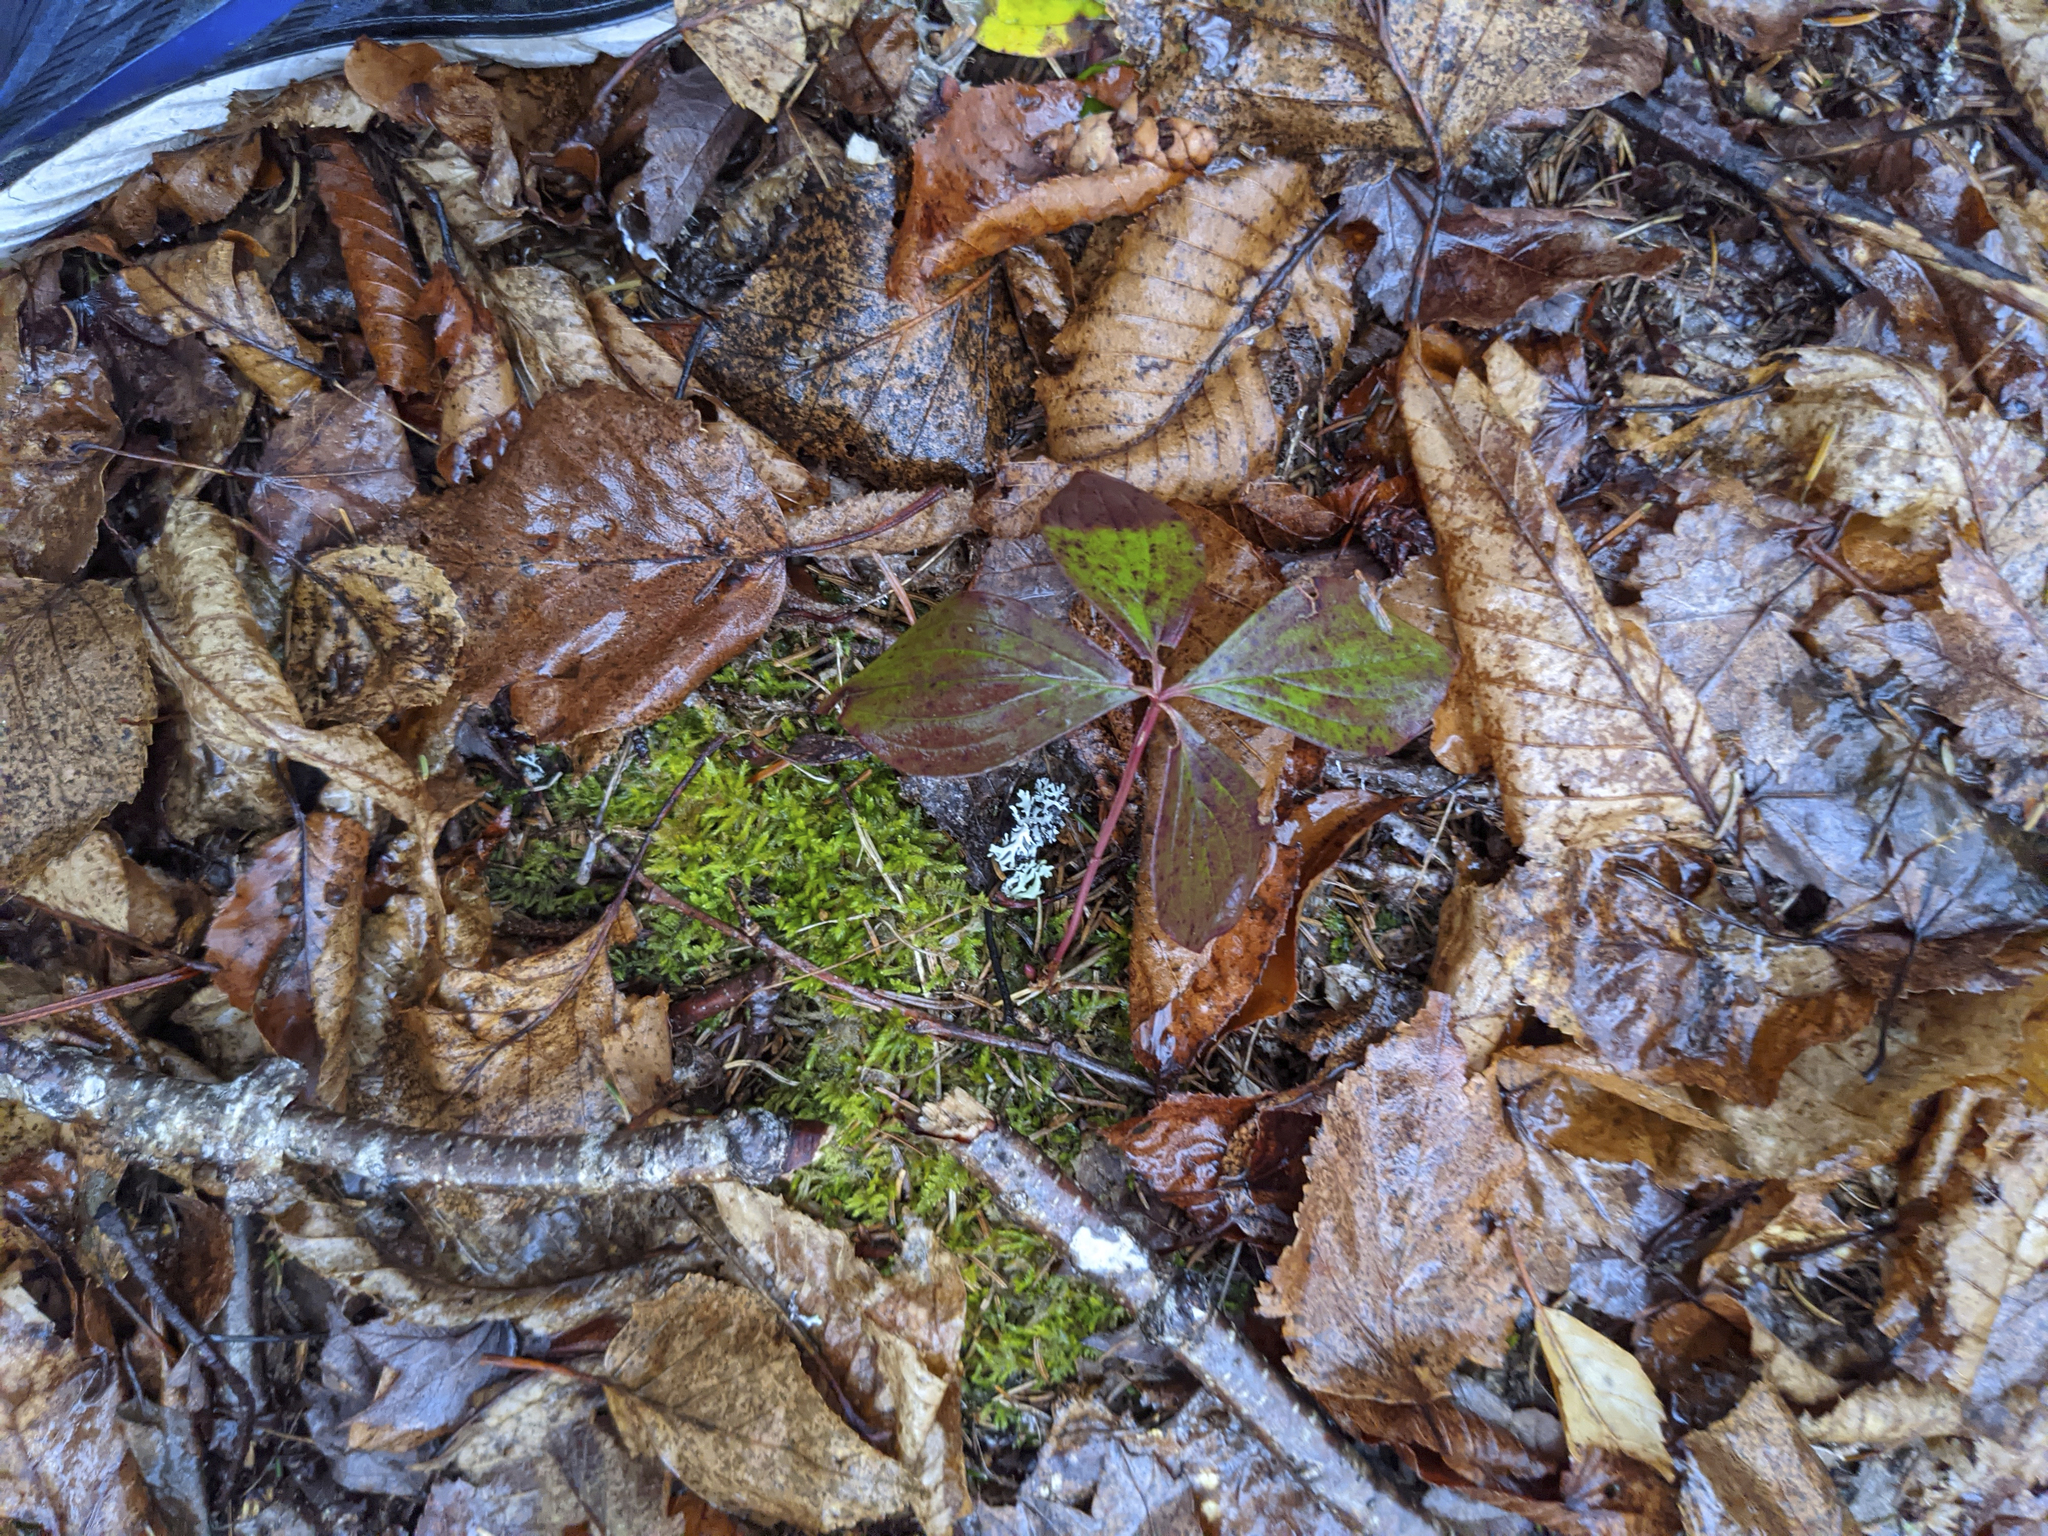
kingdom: Plantae
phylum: Tracheophyta
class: Magnoliopsida
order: Cornales
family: Cornaceae
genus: Cornus
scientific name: Cornus canadensis
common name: Creeping dogwood
